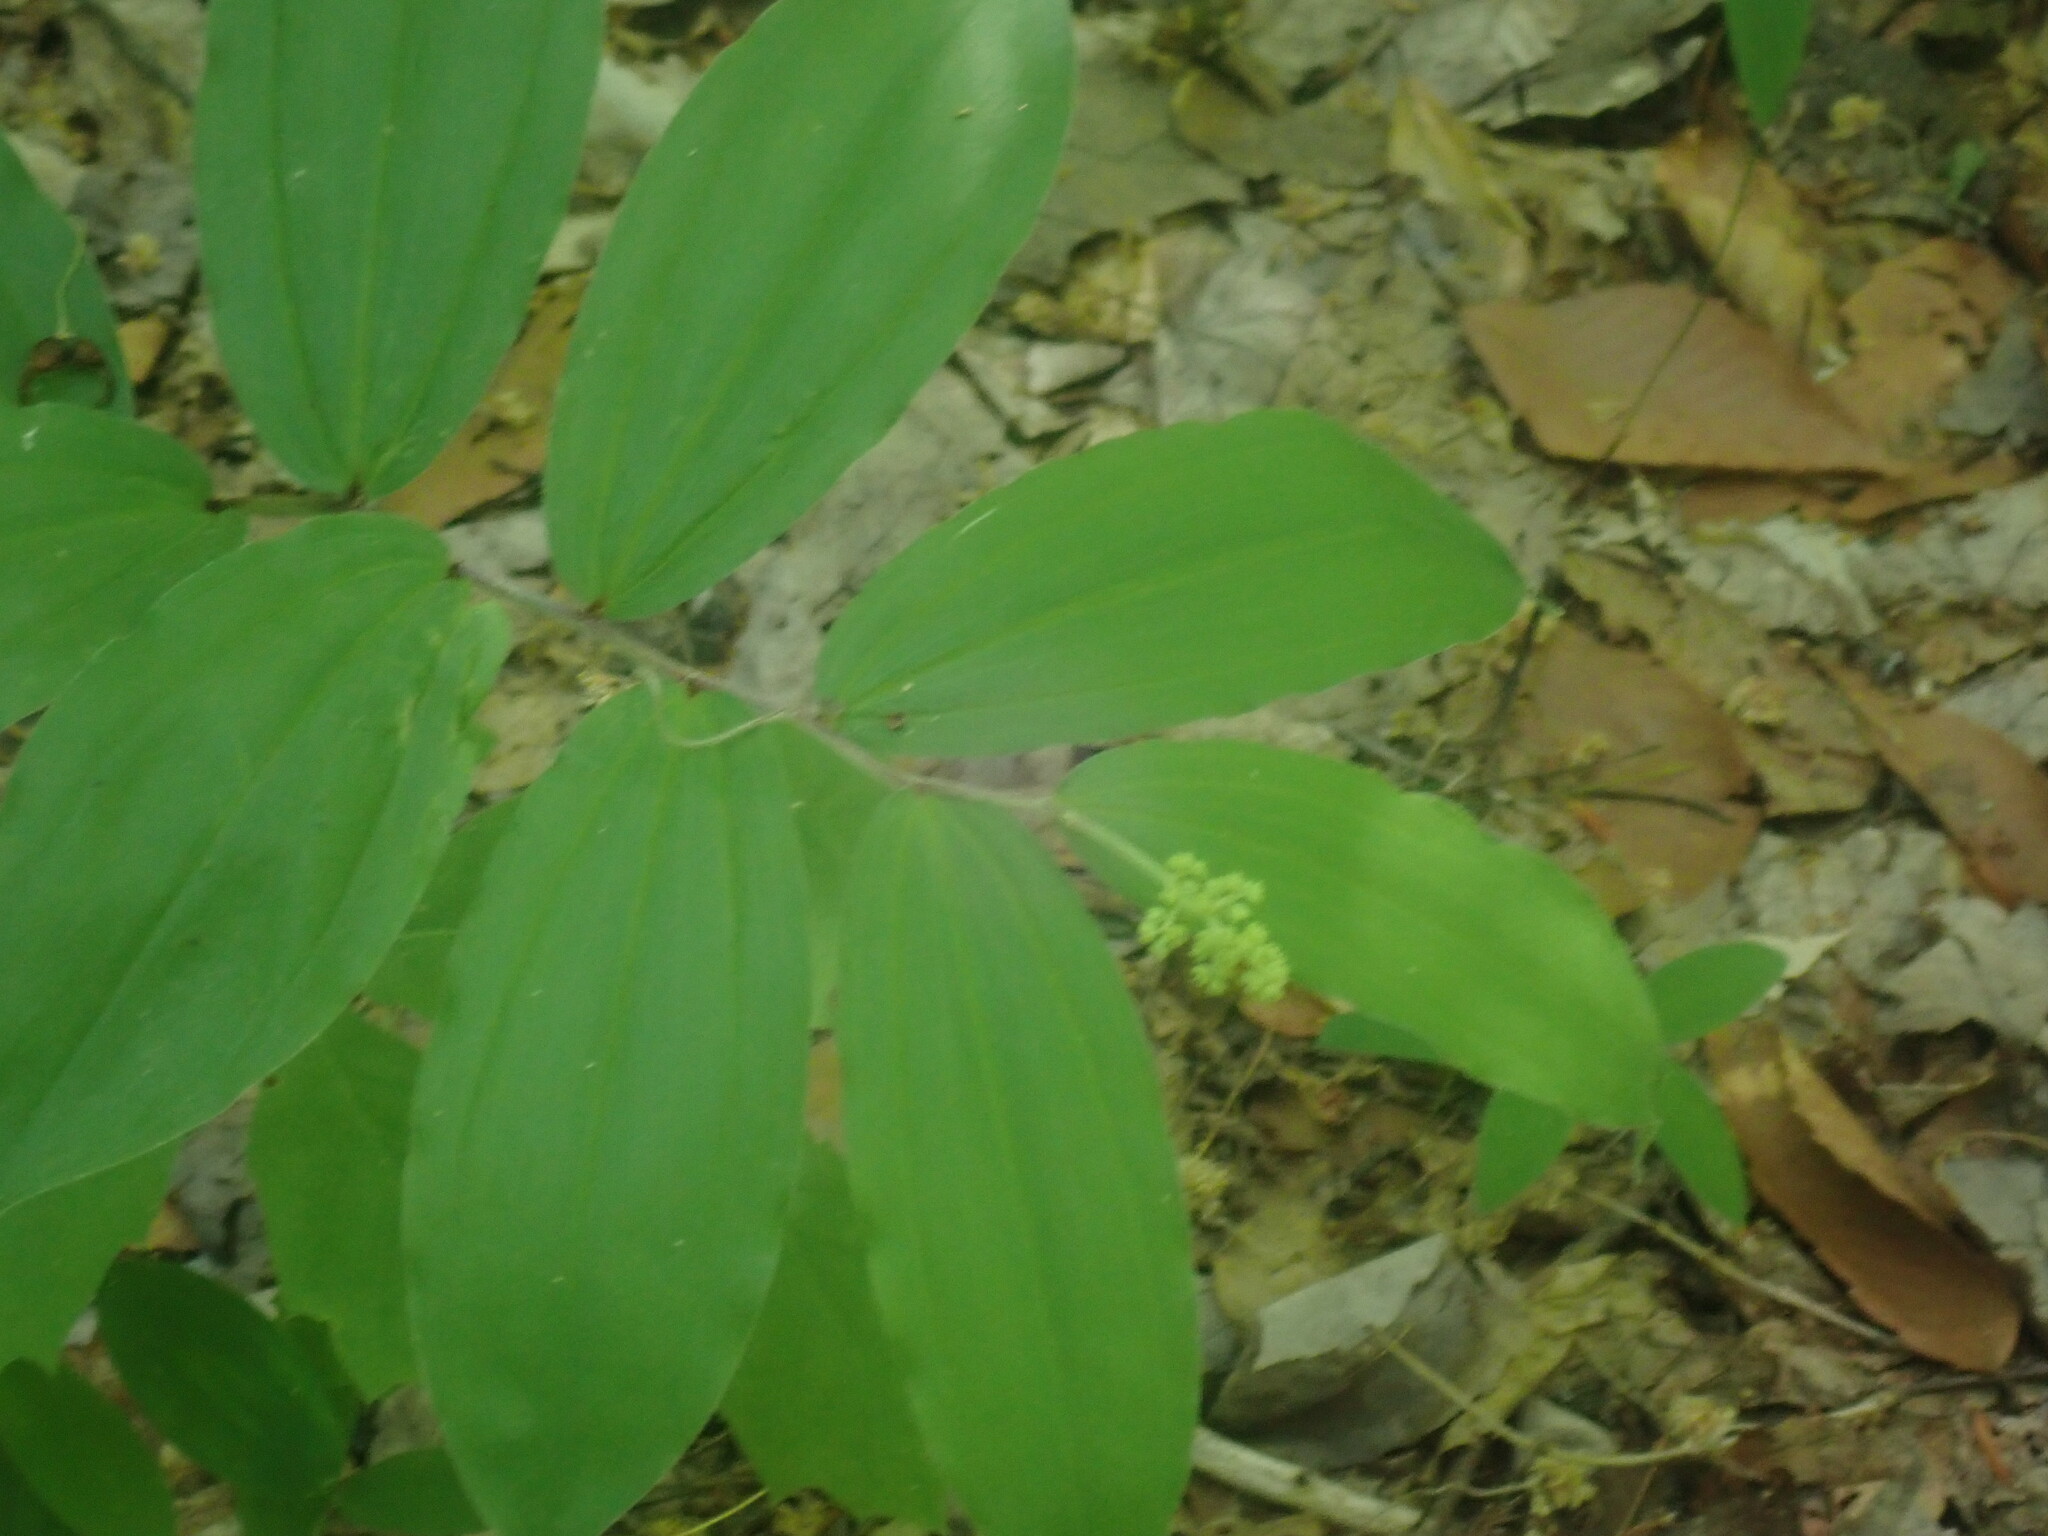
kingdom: Plantae
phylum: Tracheophyta
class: Liliopsida
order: Asparagales
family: Asparagaceae
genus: Maianthemum
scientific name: Maianthemum racemosum
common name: False spikenard
